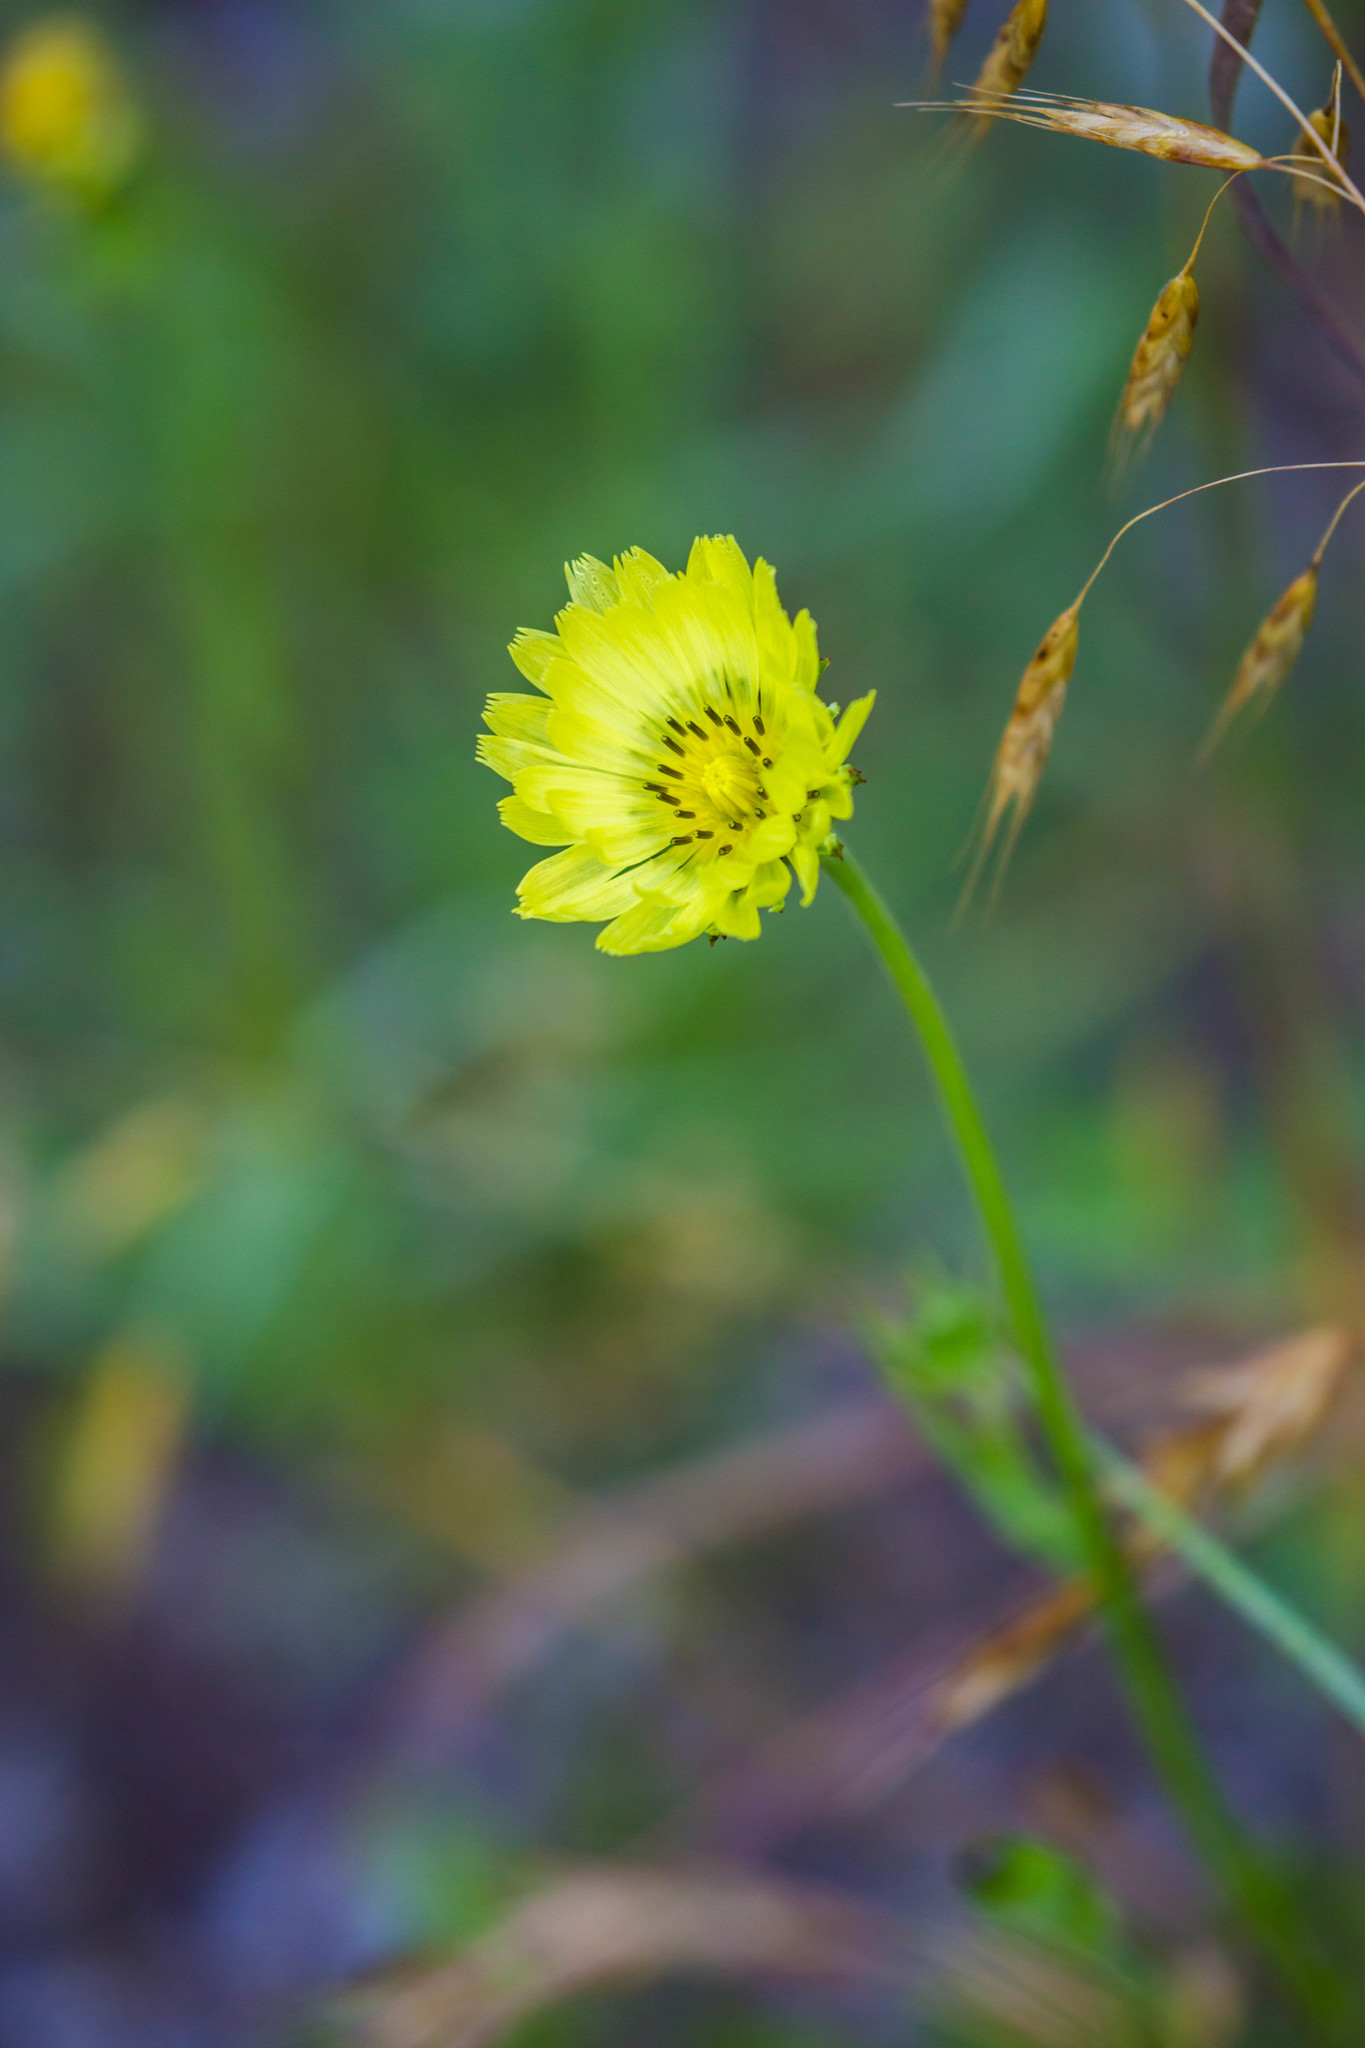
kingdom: Plantae
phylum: Tracheophyta
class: Magnoliopsida
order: Asterales
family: Asteraceae
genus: Pyrrhopappus
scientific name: Pyrrhopappus carolinianus
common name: Carolina desert-chicory
